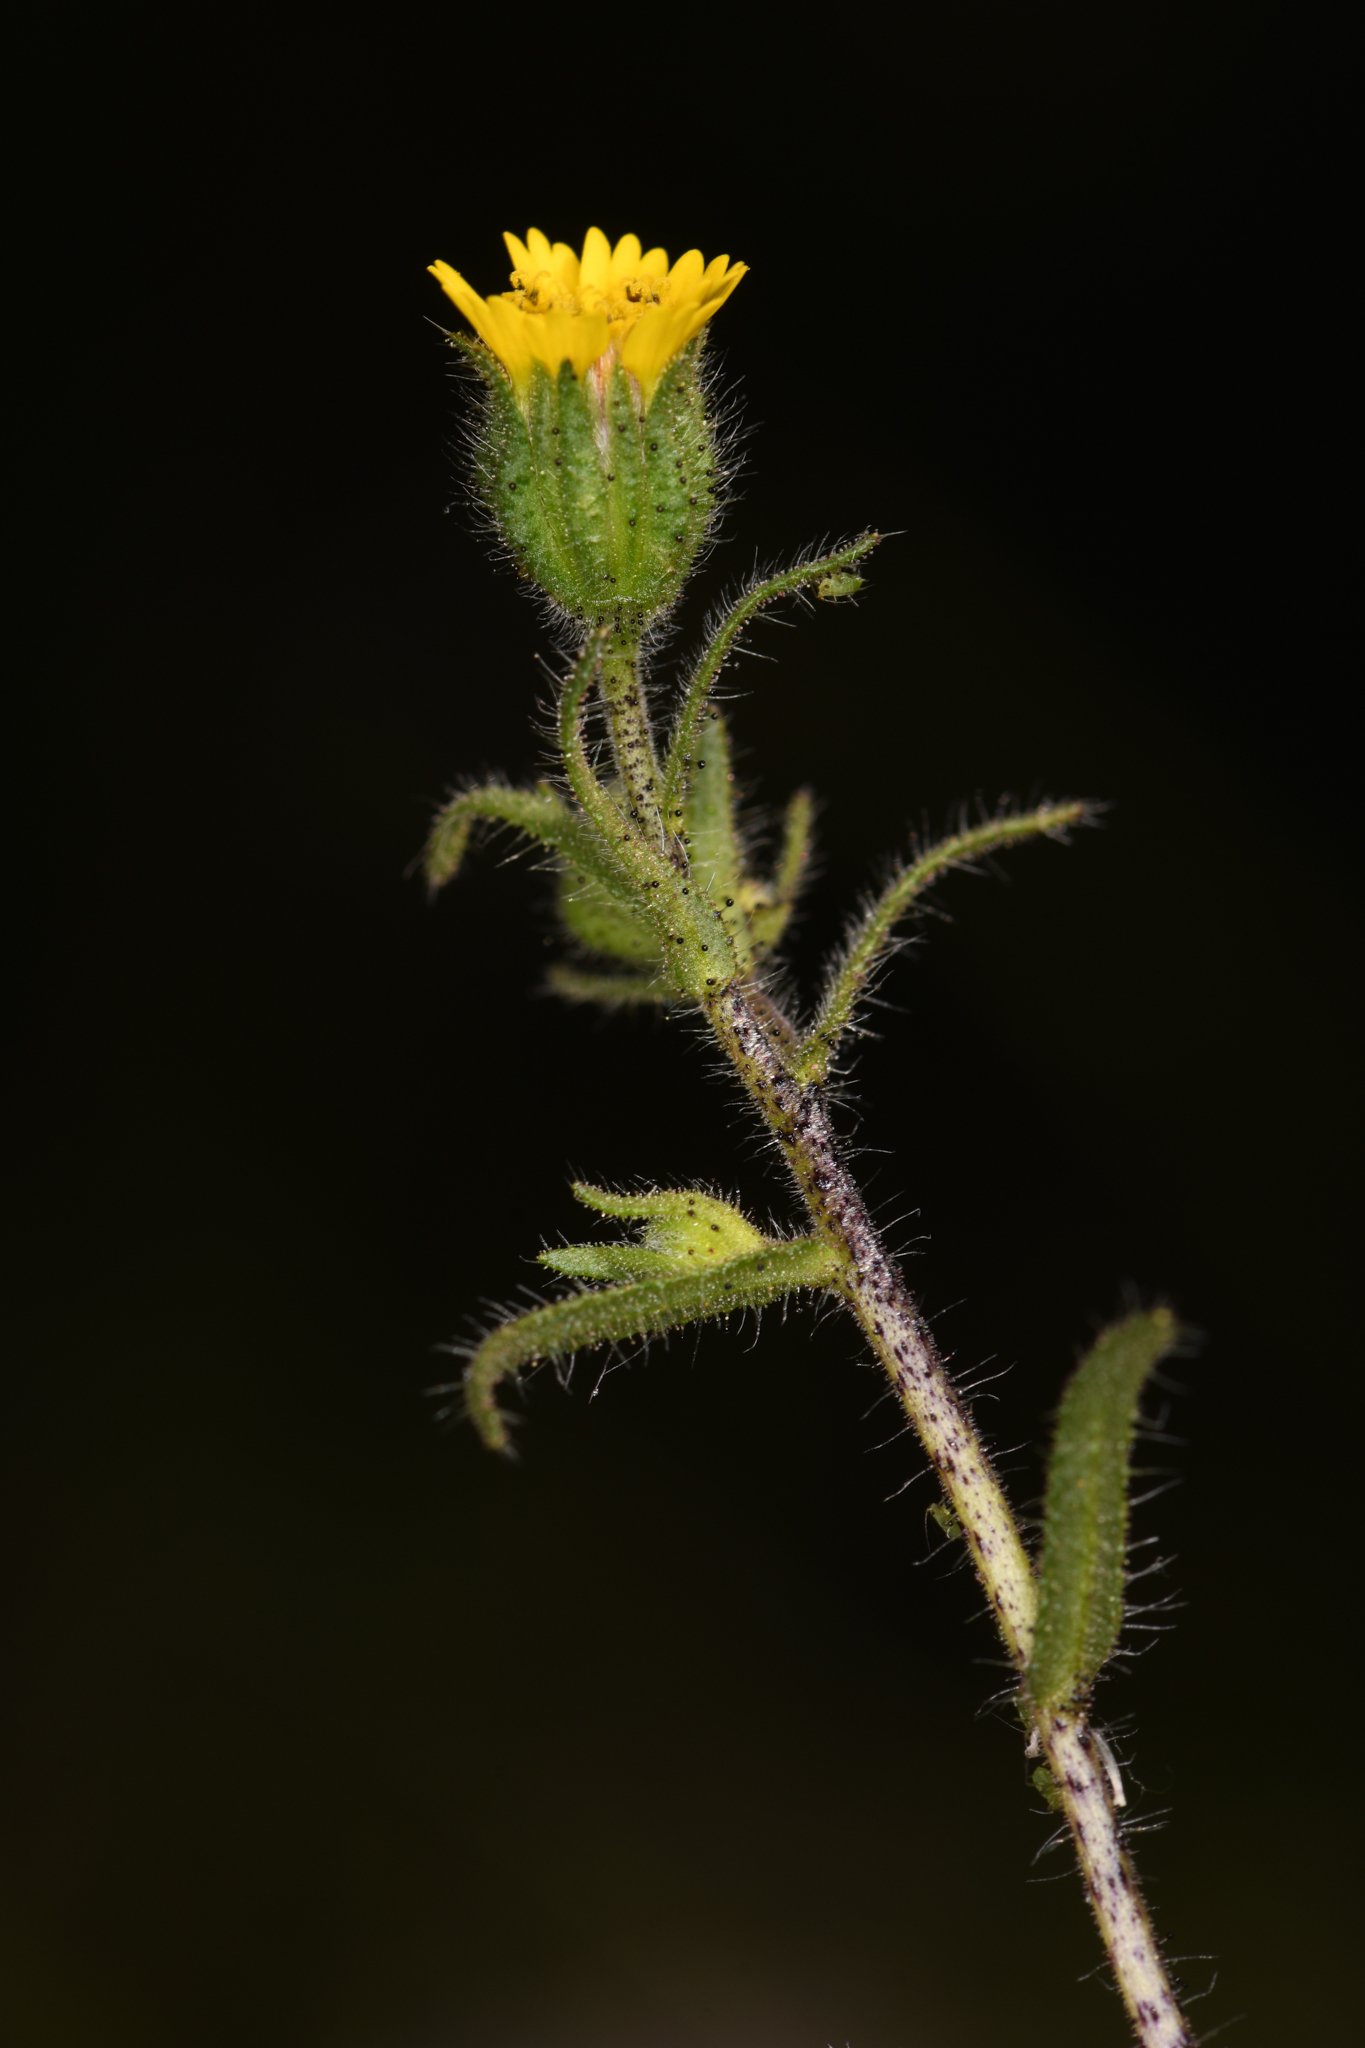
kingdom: Plantae
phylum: Tracheophyta
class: Magnoliopsida
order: Asterales
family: Asteraceae
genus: Layia
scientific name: Layia hieracioides
